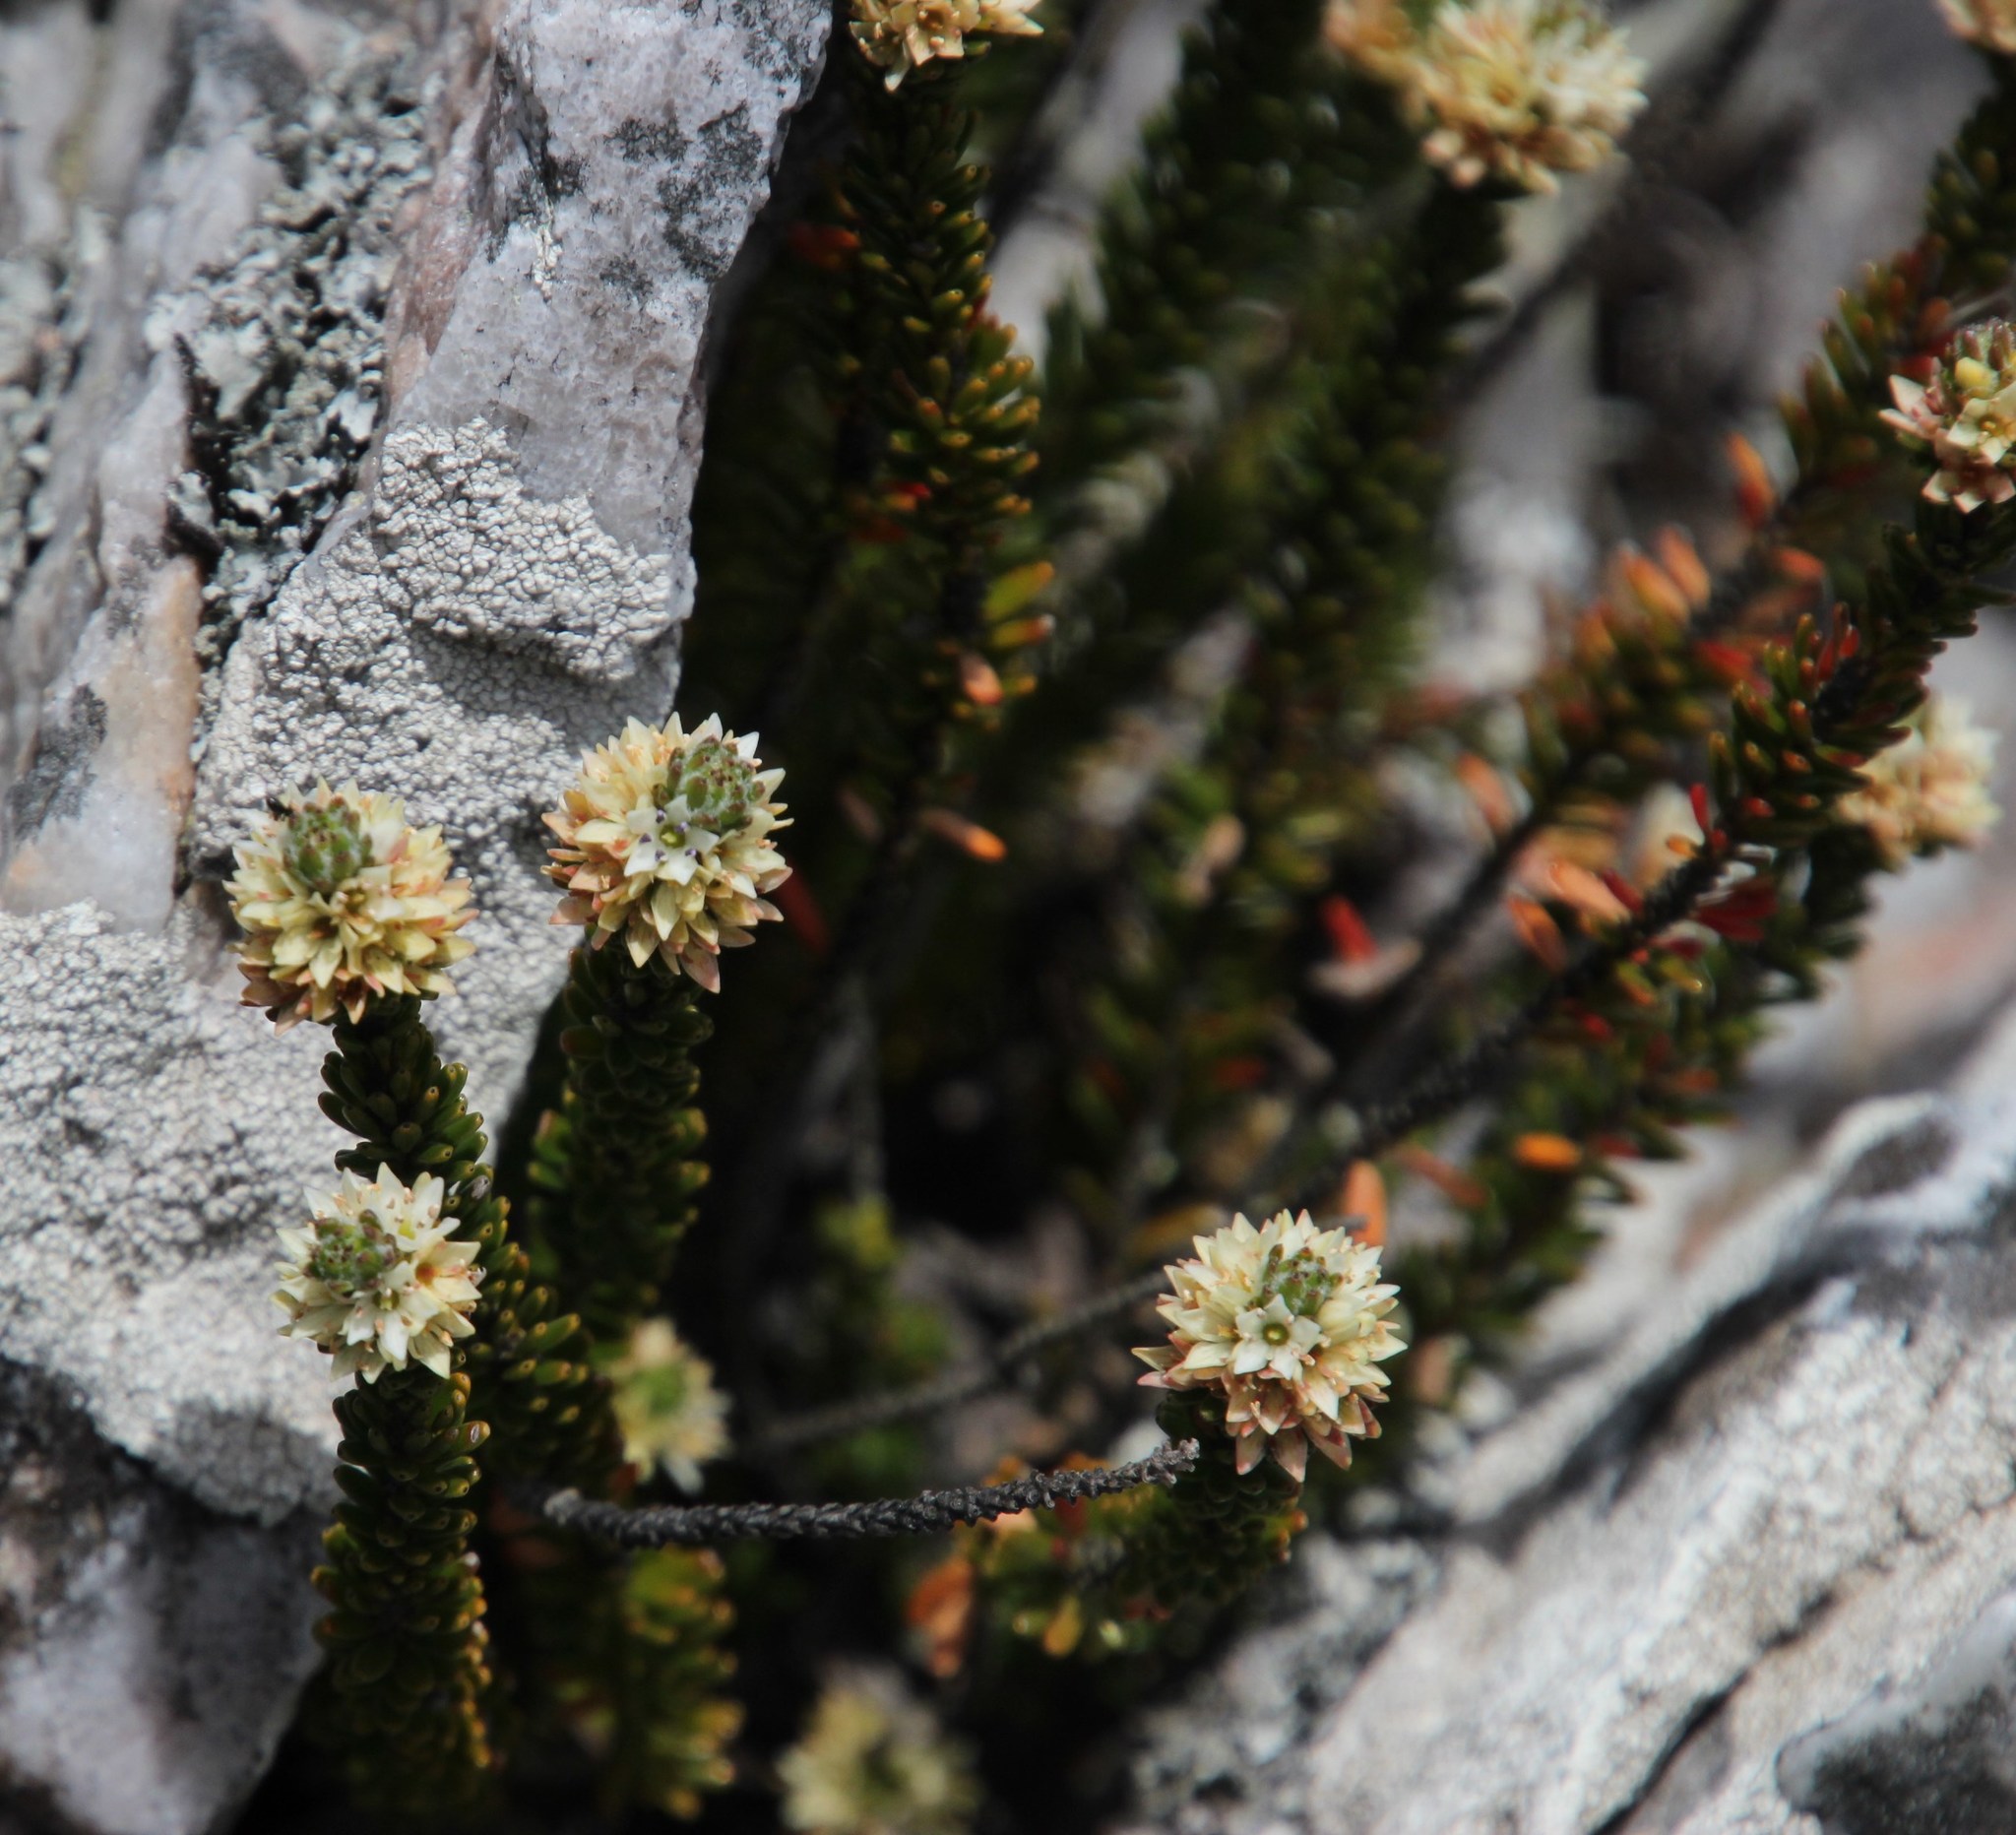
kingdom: Plantae
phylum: Tracheophyta
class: Magnoliopsida
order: Bruniales
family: Bruniaceae
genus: Linconia
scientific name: Linconia cuspidata
